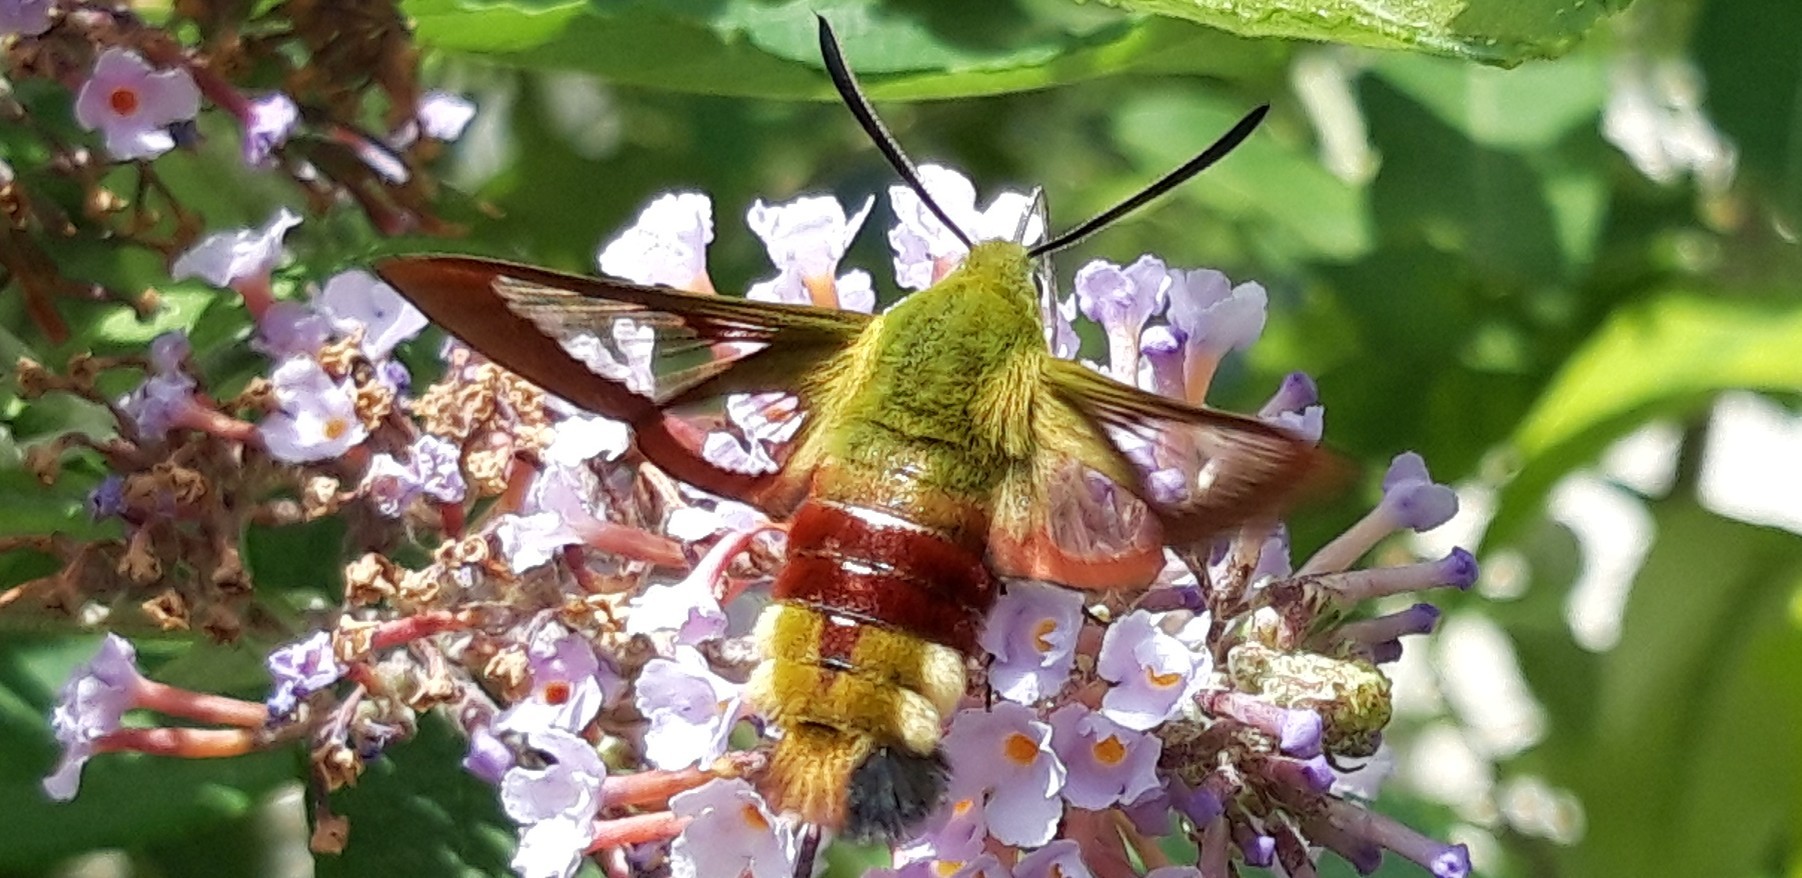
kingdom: Animalia
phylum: Arthropoda
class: Insecta
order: Lepidoptera
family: Sphingidae
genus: Hemaris
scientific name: Hemaris fuciformis
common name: Broad-bordered bee hawk-moth
